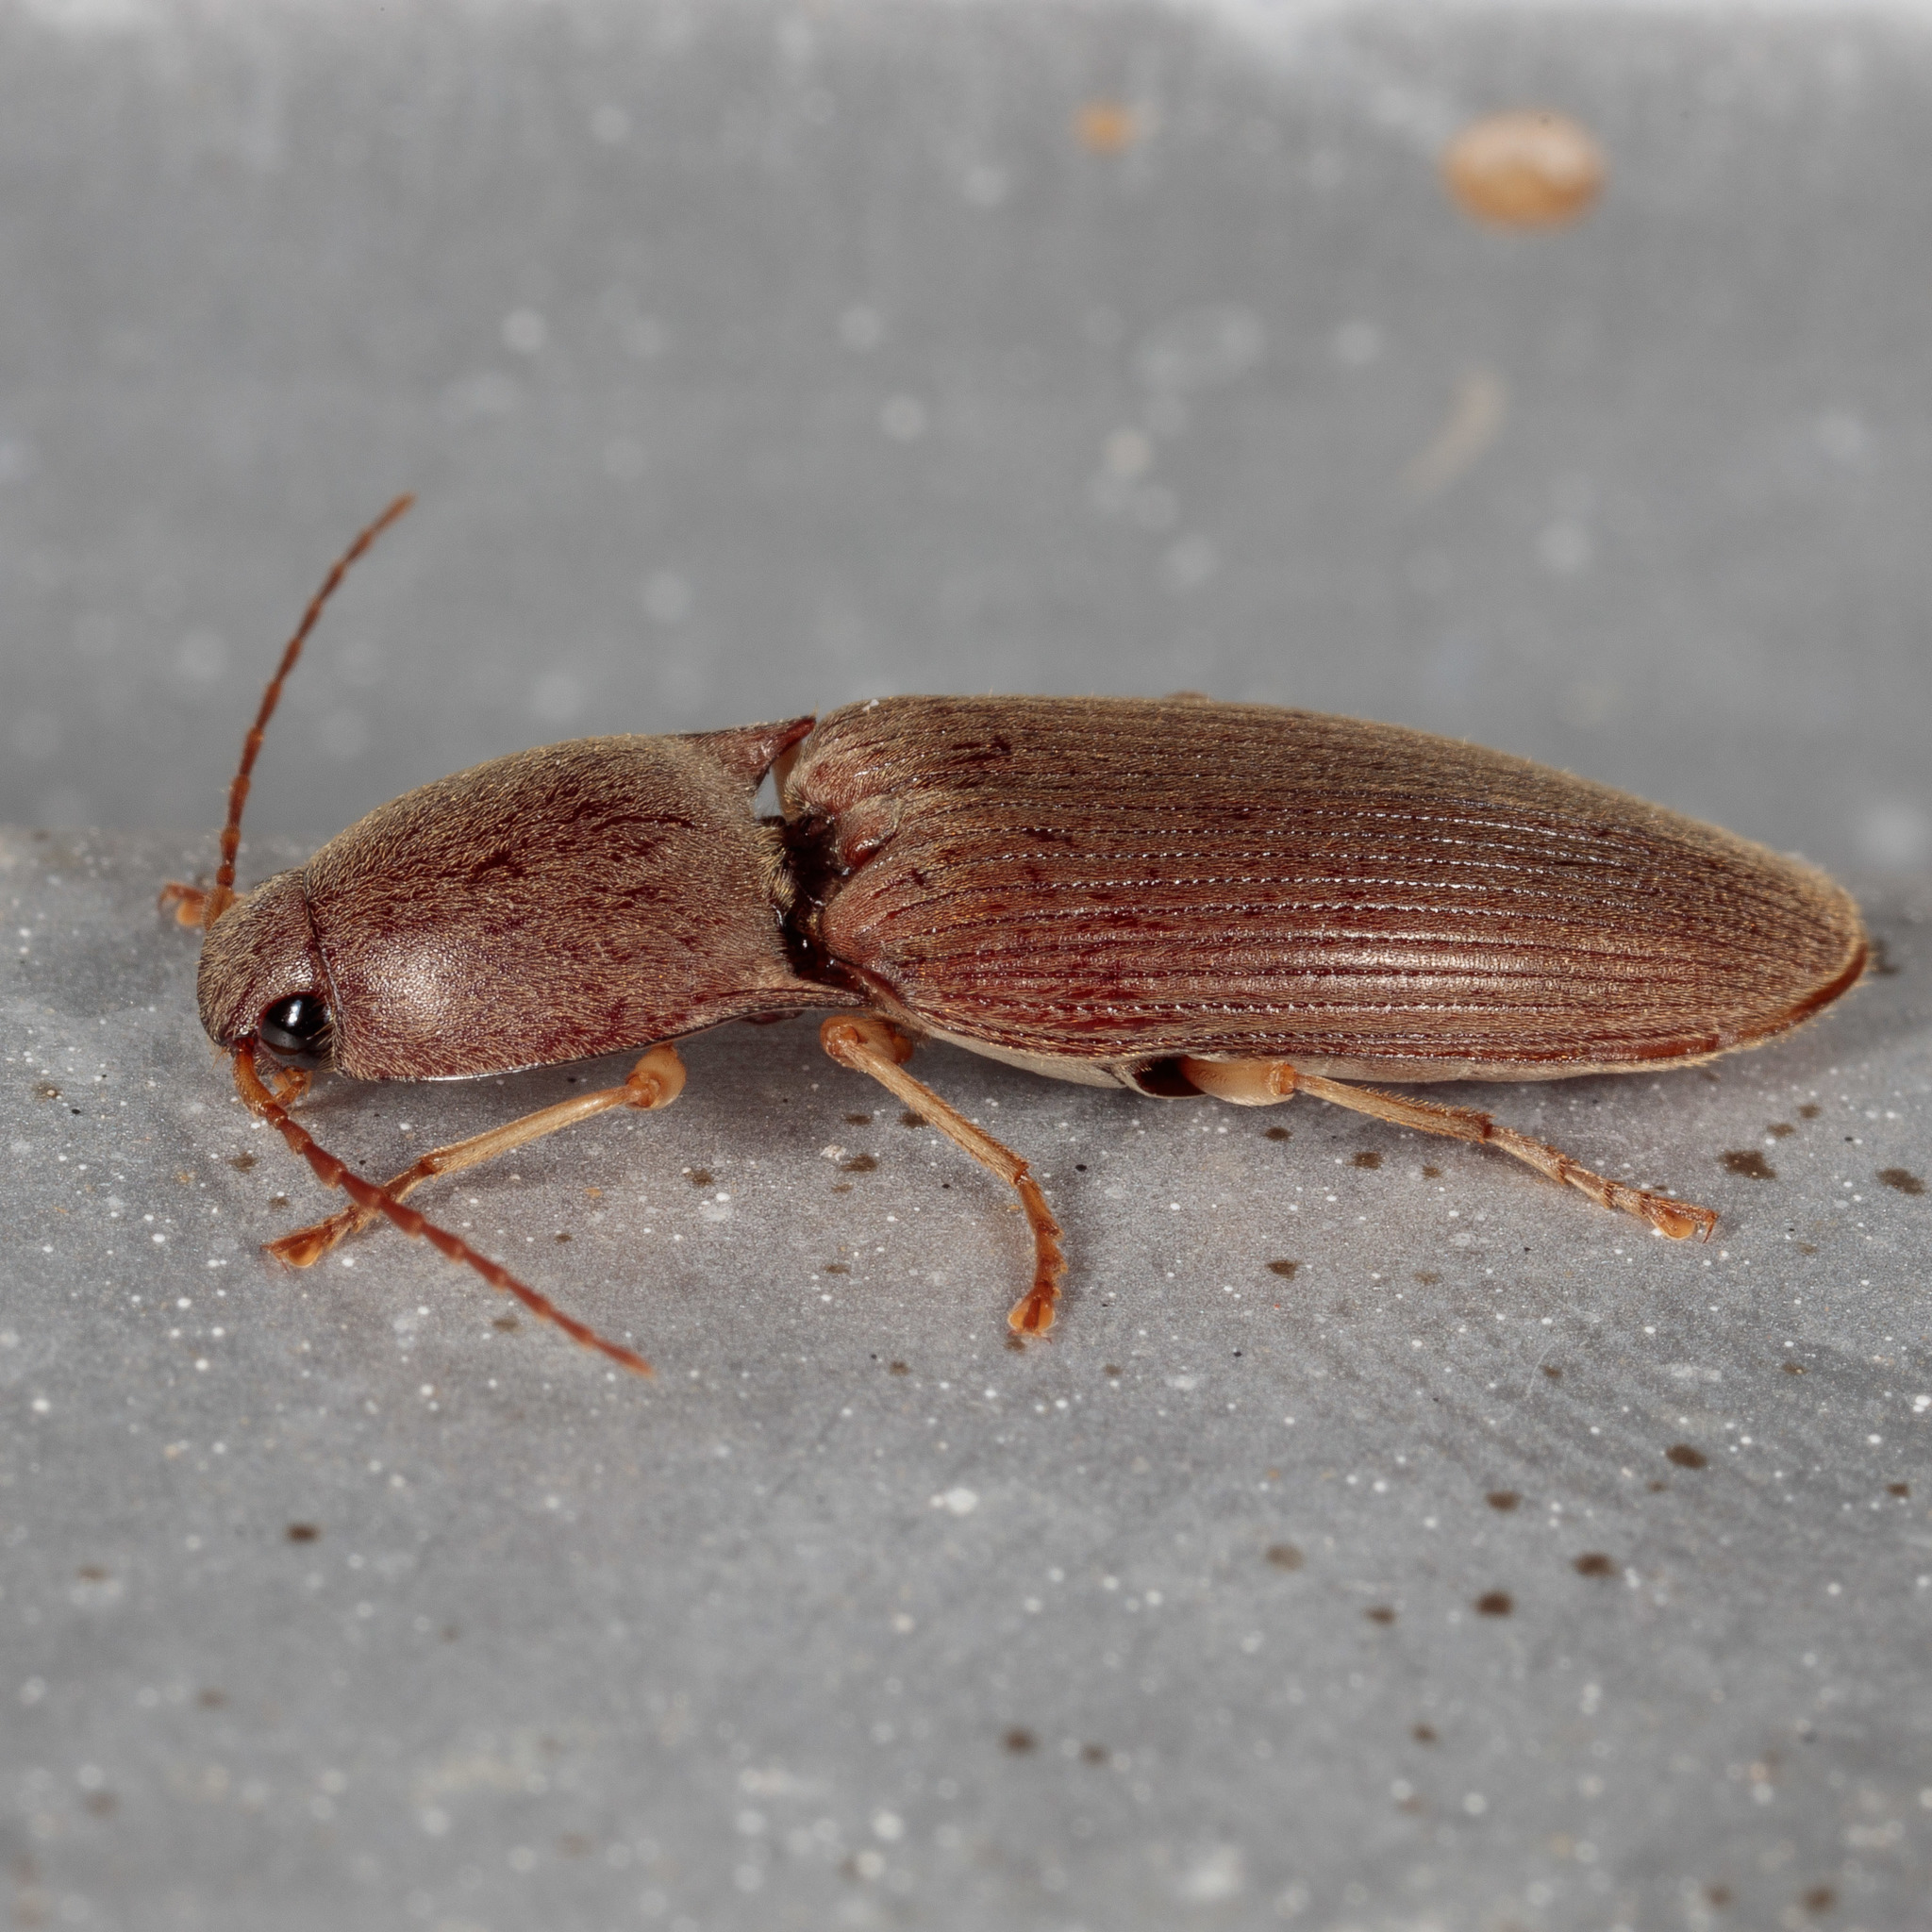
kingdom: Animalia
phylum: Arthropoda
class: Insecta
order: Coleoptera
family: Elateridae
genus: Monocrepidius
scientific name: Monocrepidius lividus
